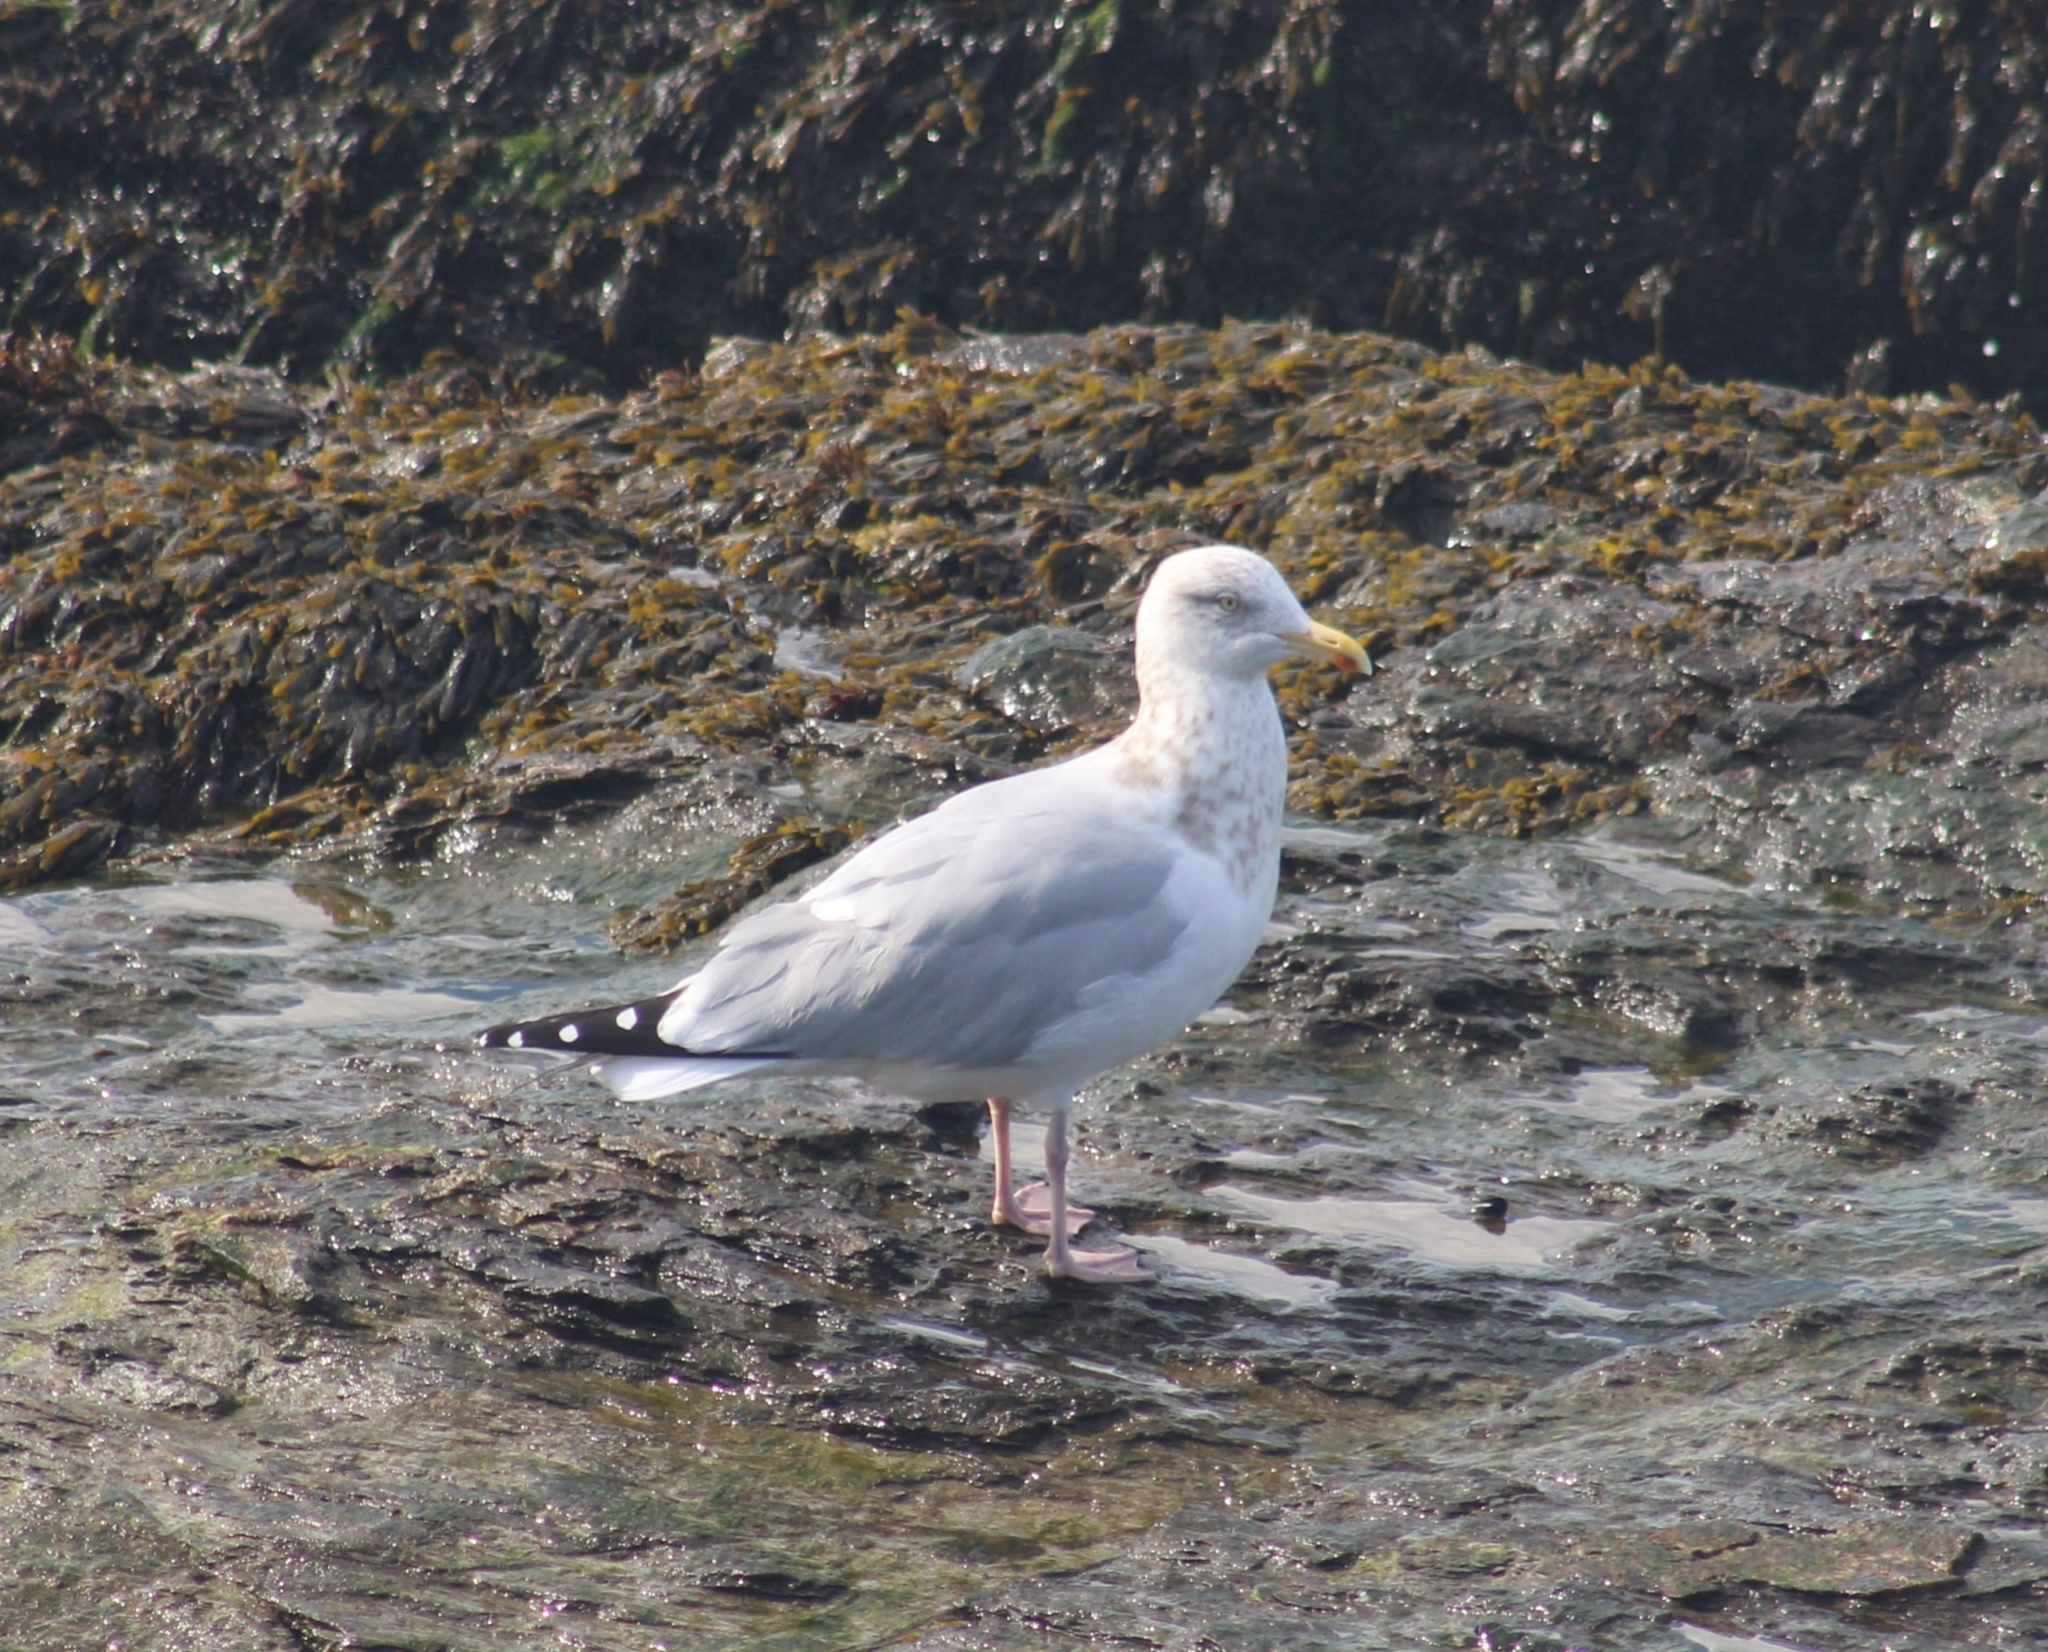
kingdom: Animalia
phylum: Chordata
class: Aves
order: Charadriiformes
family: Laridae
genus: Larus
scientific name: Larus argentatus
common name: Herring gull
